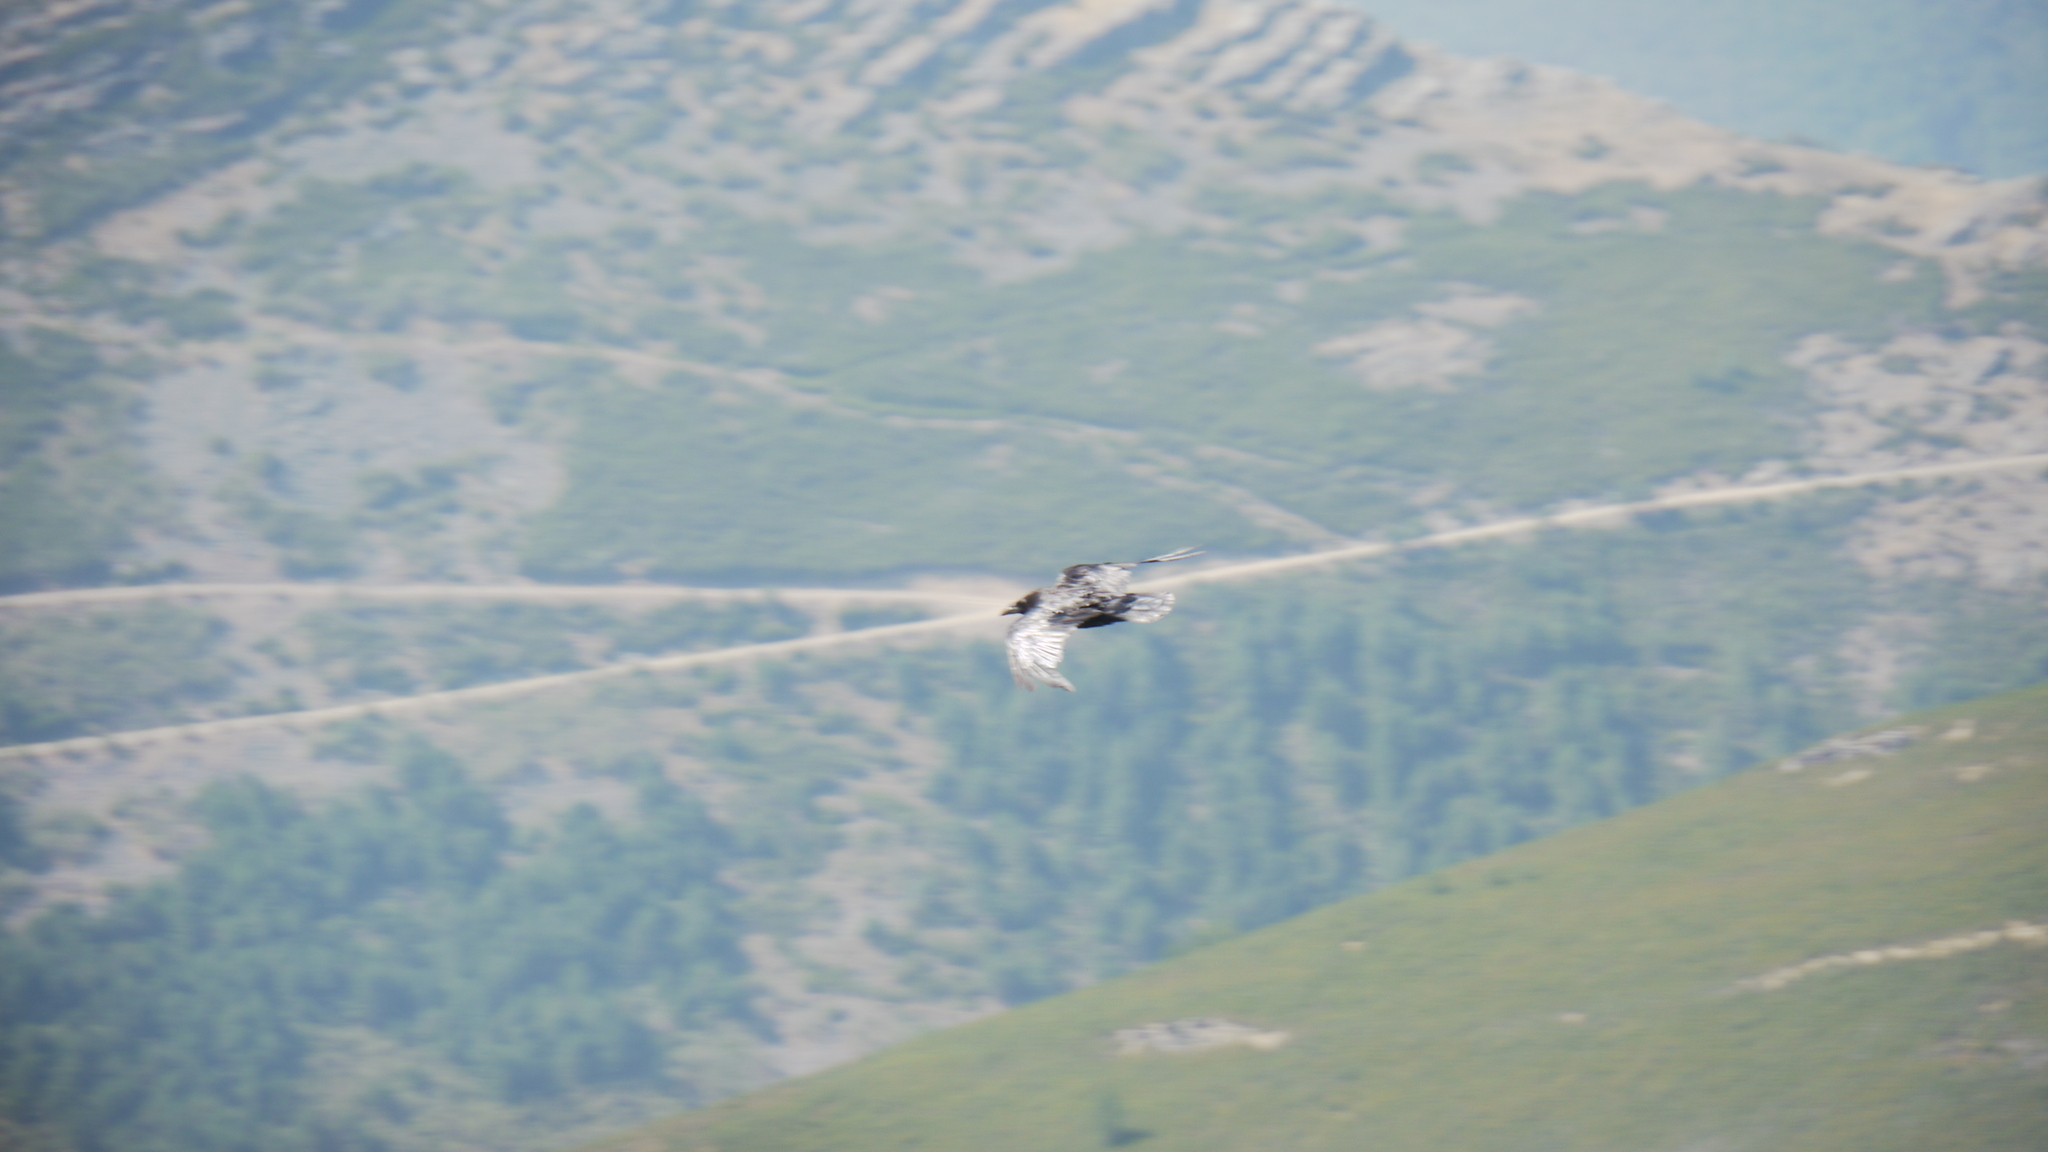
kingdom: Animalia
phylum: Chordata
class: Aves
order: Passeriformes
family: Corvidae
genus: Corvus
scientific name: Corvus corax
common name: Common raven
